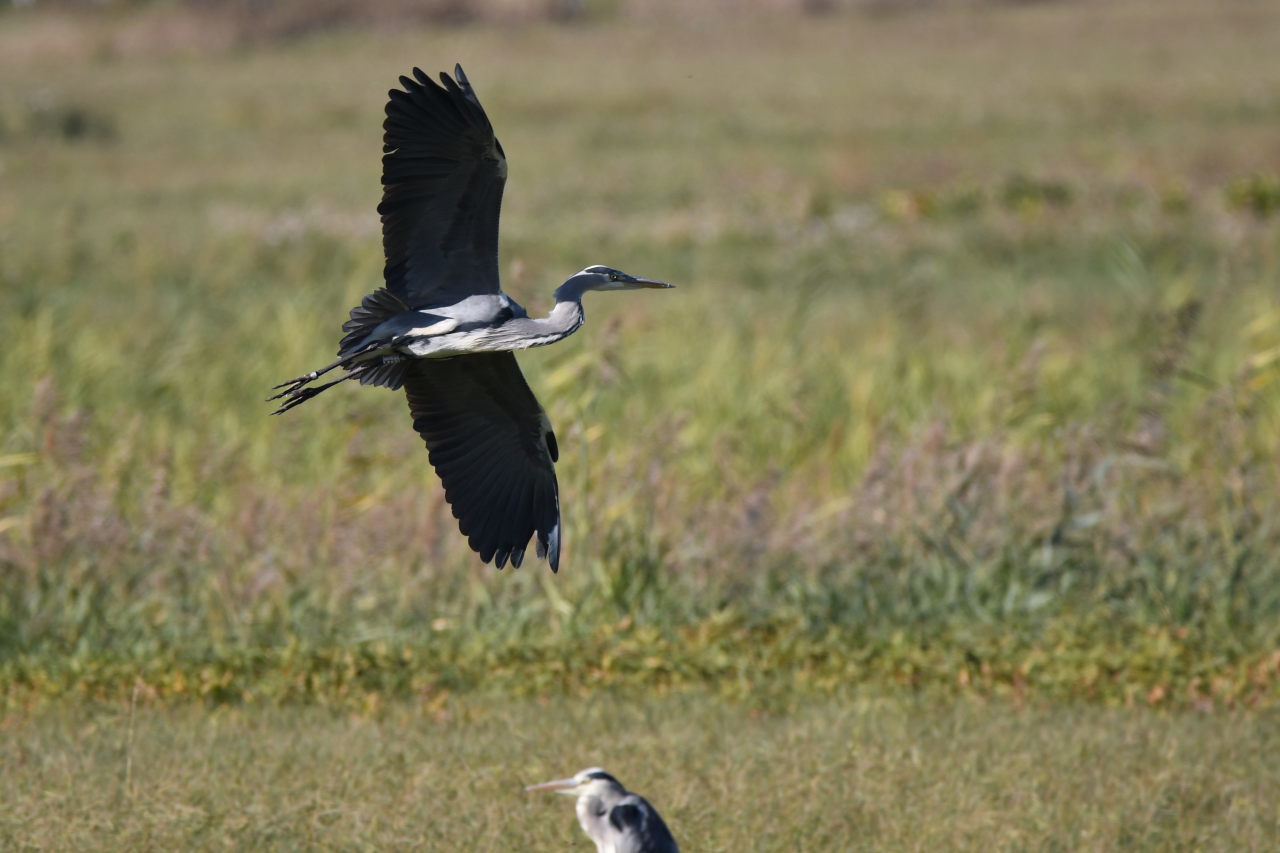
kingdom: Animalia
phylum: Chordata
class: Aves
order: Pelecaniformes
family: Ardeidae
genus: Ardea
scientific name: Ardea cinerea
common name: Grey heron
